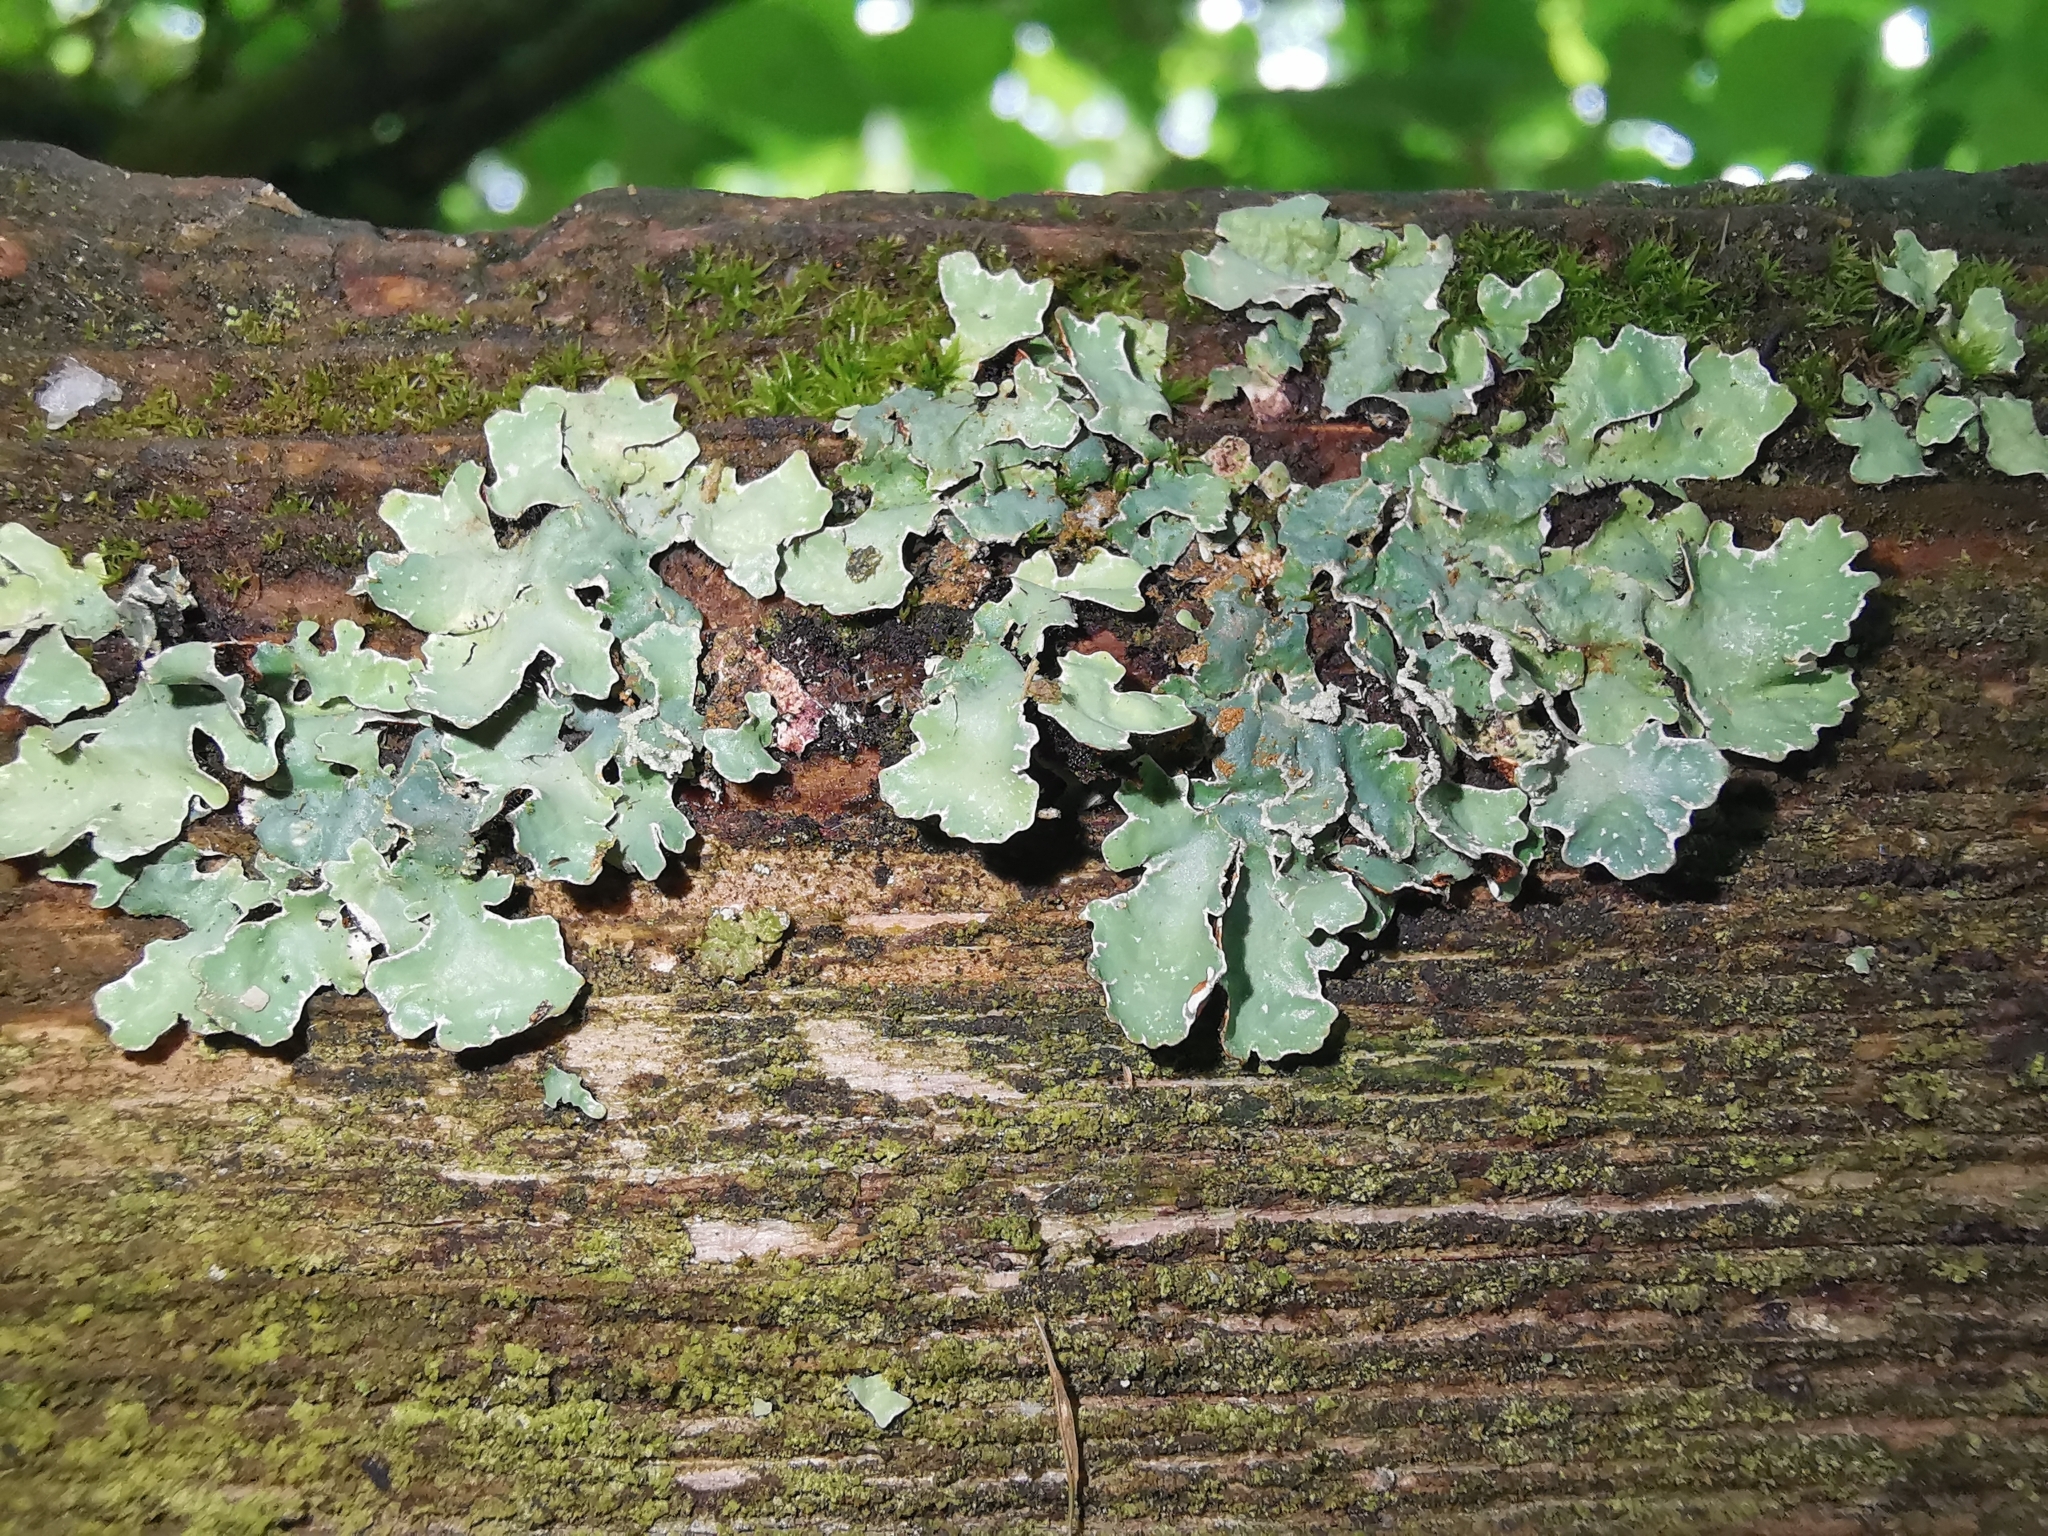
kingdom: Fungi
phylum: Ascomycota
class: Lecanoromycetes
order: Lecanorales
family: Parmeliaceae
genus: Parmelia
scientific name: Parmelia sulcata
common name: Netted shield lichen
